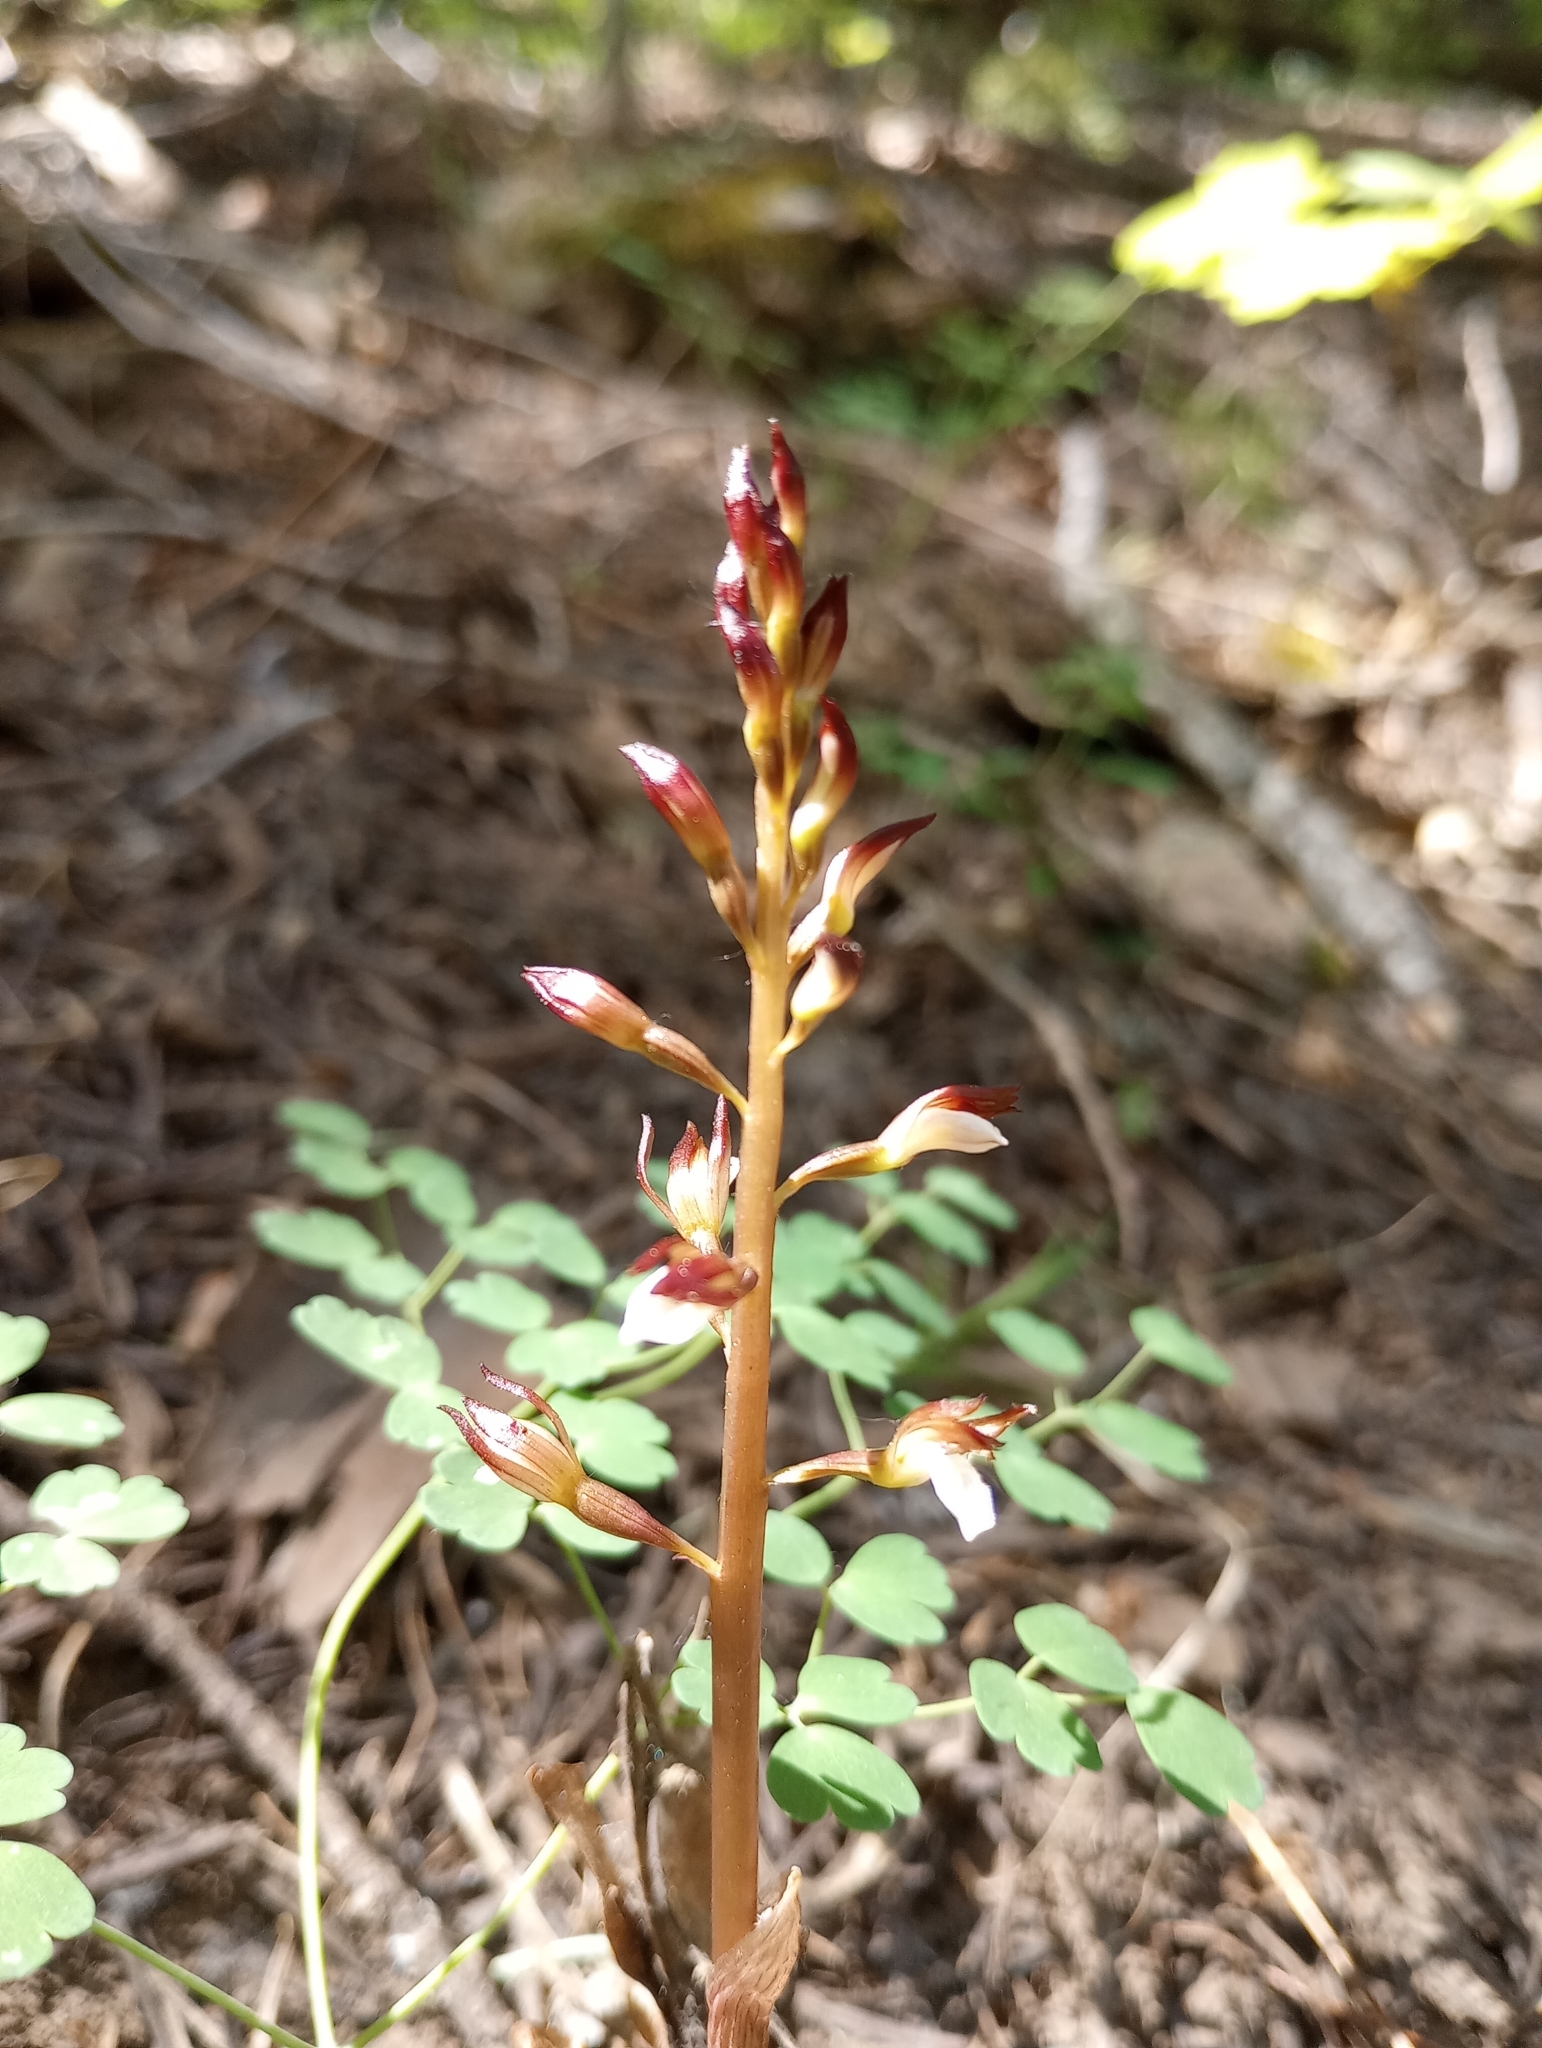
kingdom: Plantae
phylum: Tracheophyta
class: Liliopsida
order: Asparagales
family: Orchidaceae
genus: Corallorhiza
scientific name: Corallorhiza wisteriana
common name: Spring coralroot
